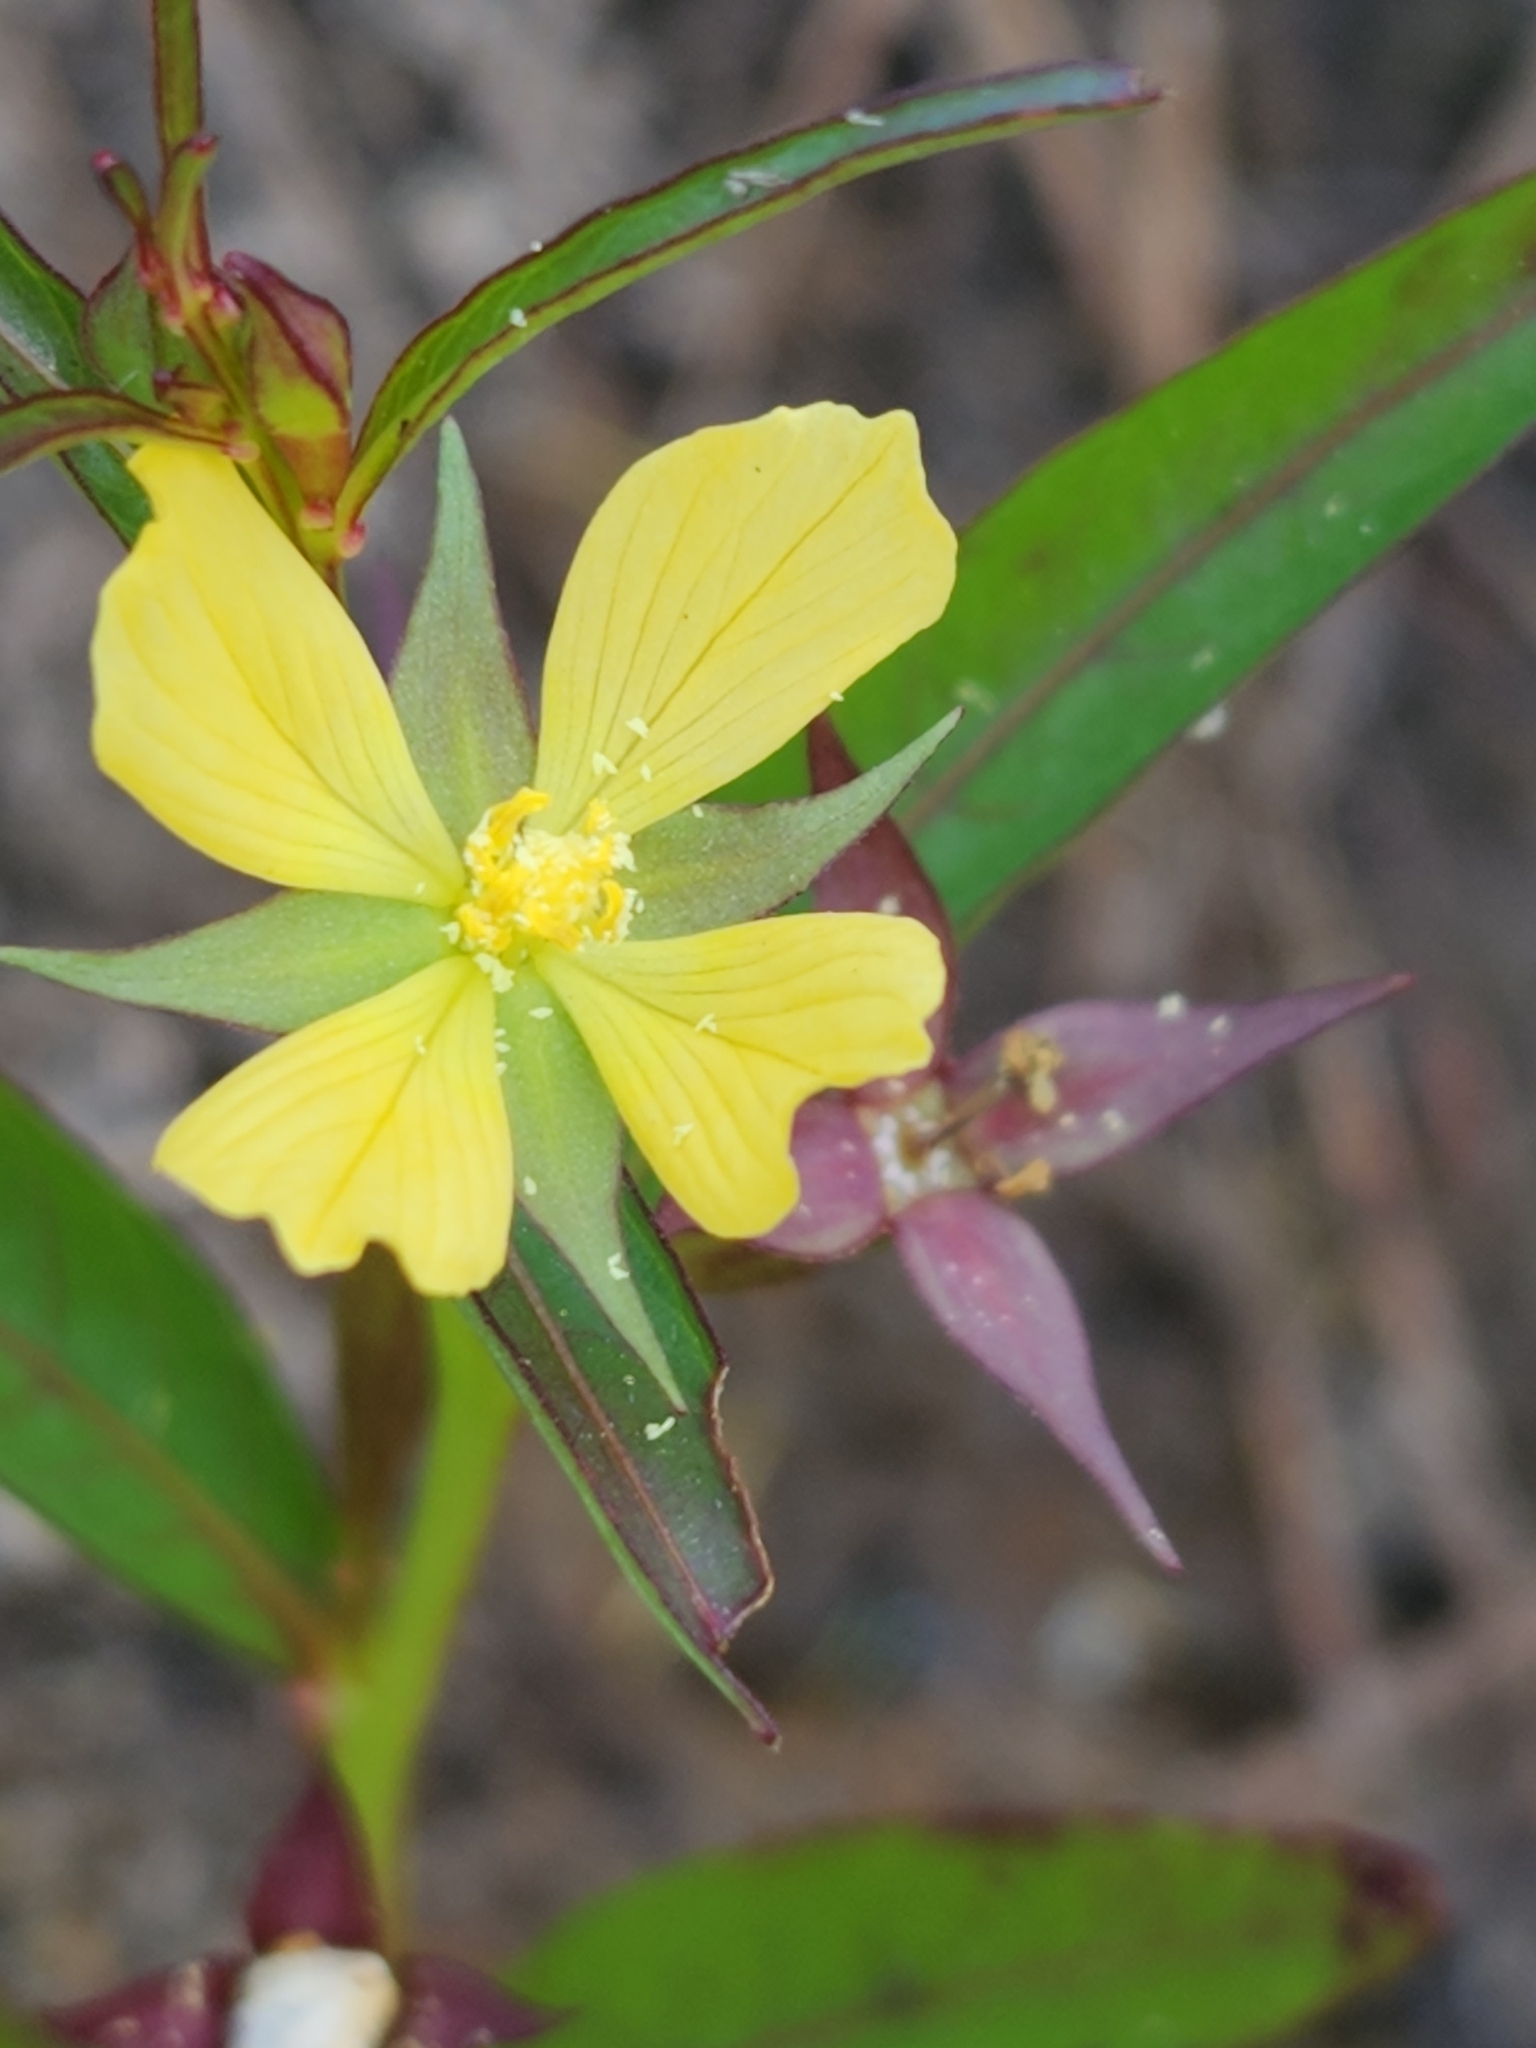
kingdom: Plantae
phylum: Tracheophyta
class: Magnoliopsida
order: Myrtales
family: Onagraceae
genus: Ludwigia
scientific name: Ludwigia decurrens
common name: Winged water-primrose
